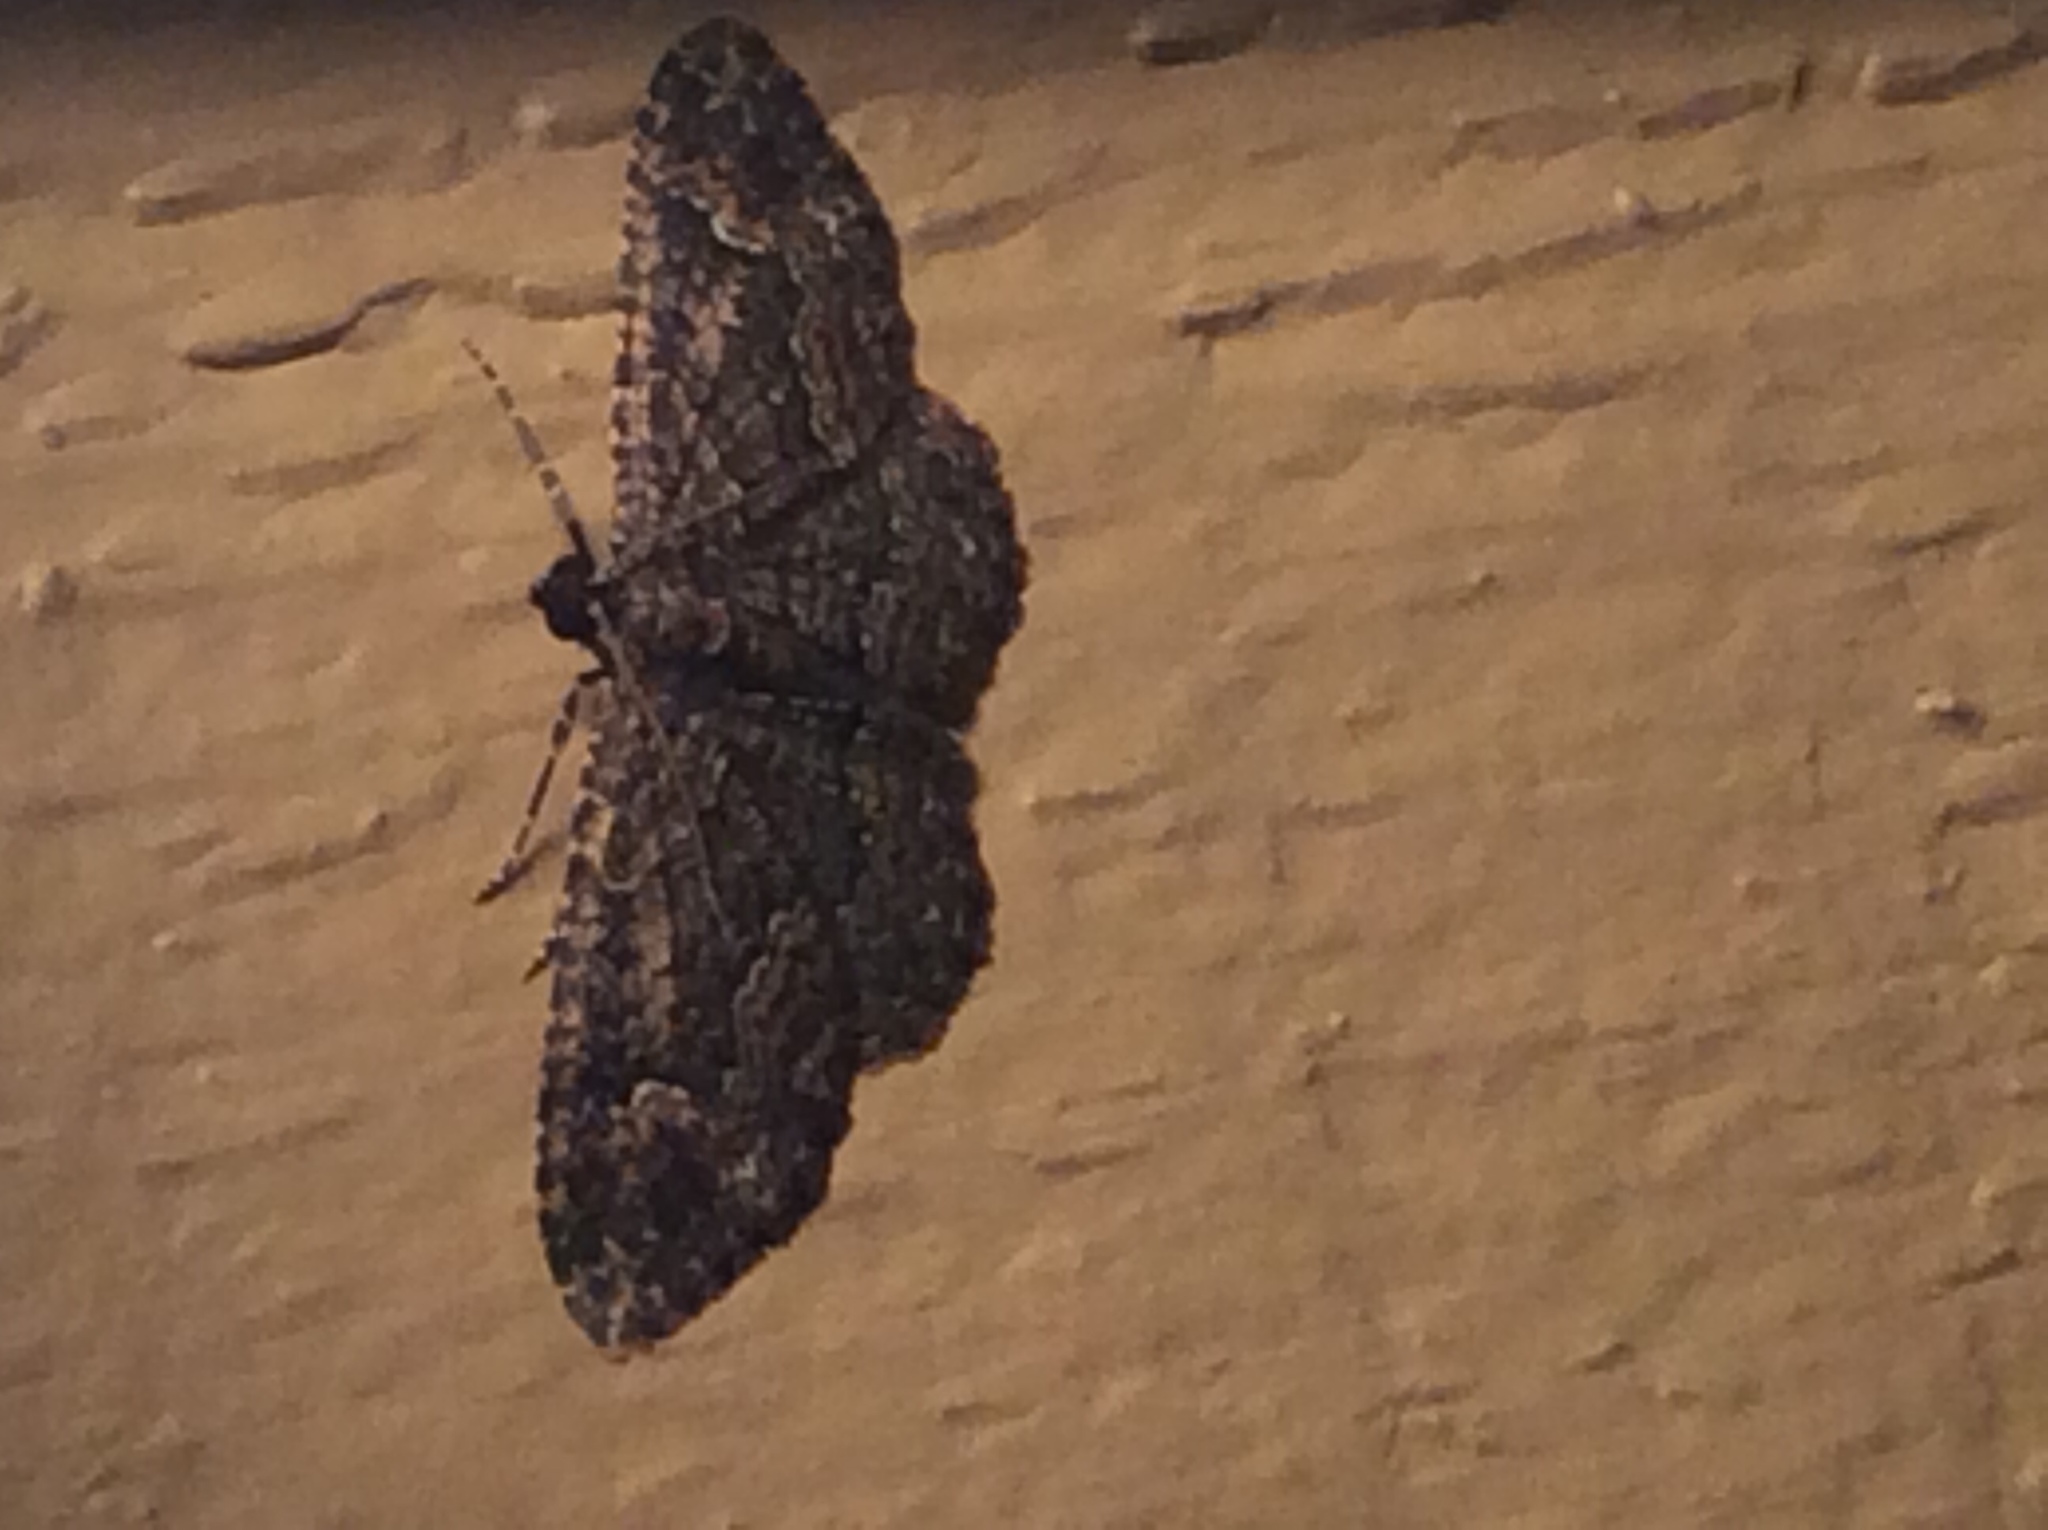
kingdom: Animalia
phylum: Arthropoda
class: Insecta
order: Lepidoptera
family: Geometridae
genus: Disclisioprocta
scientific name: Disclisioprocta stellata
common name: Somber carpet
